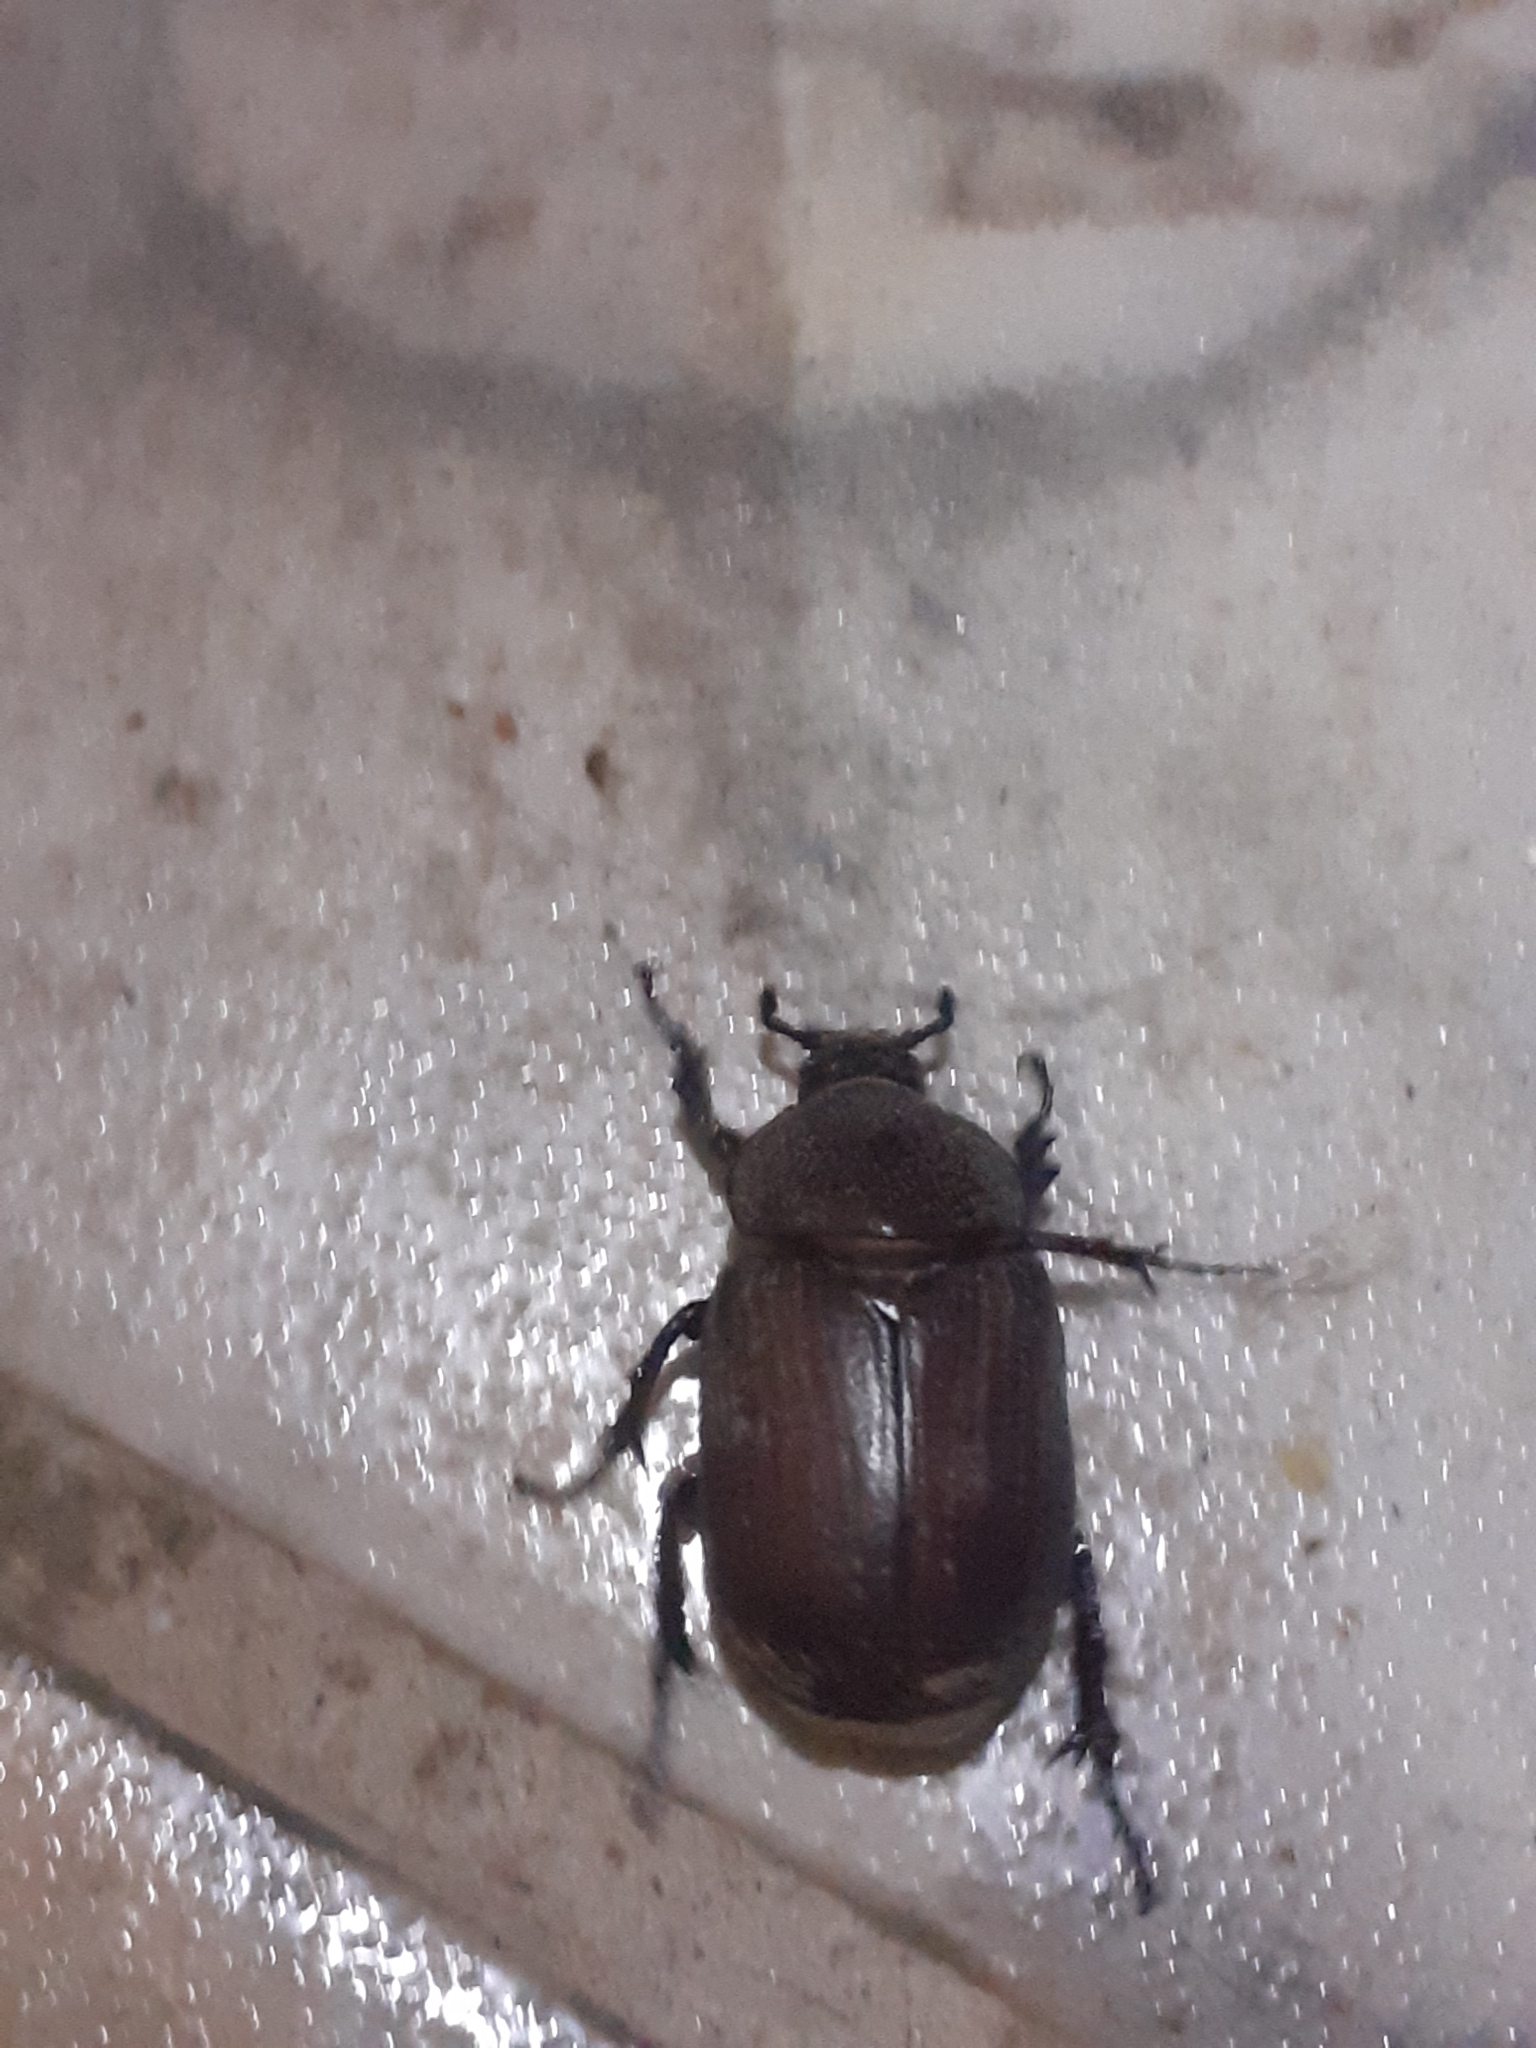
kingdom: Animalia
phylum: Arthropoda
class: Insecta
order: Coleoptera
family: Scarabaeidae
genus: Coelosis
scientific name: Coelosis bicornis
